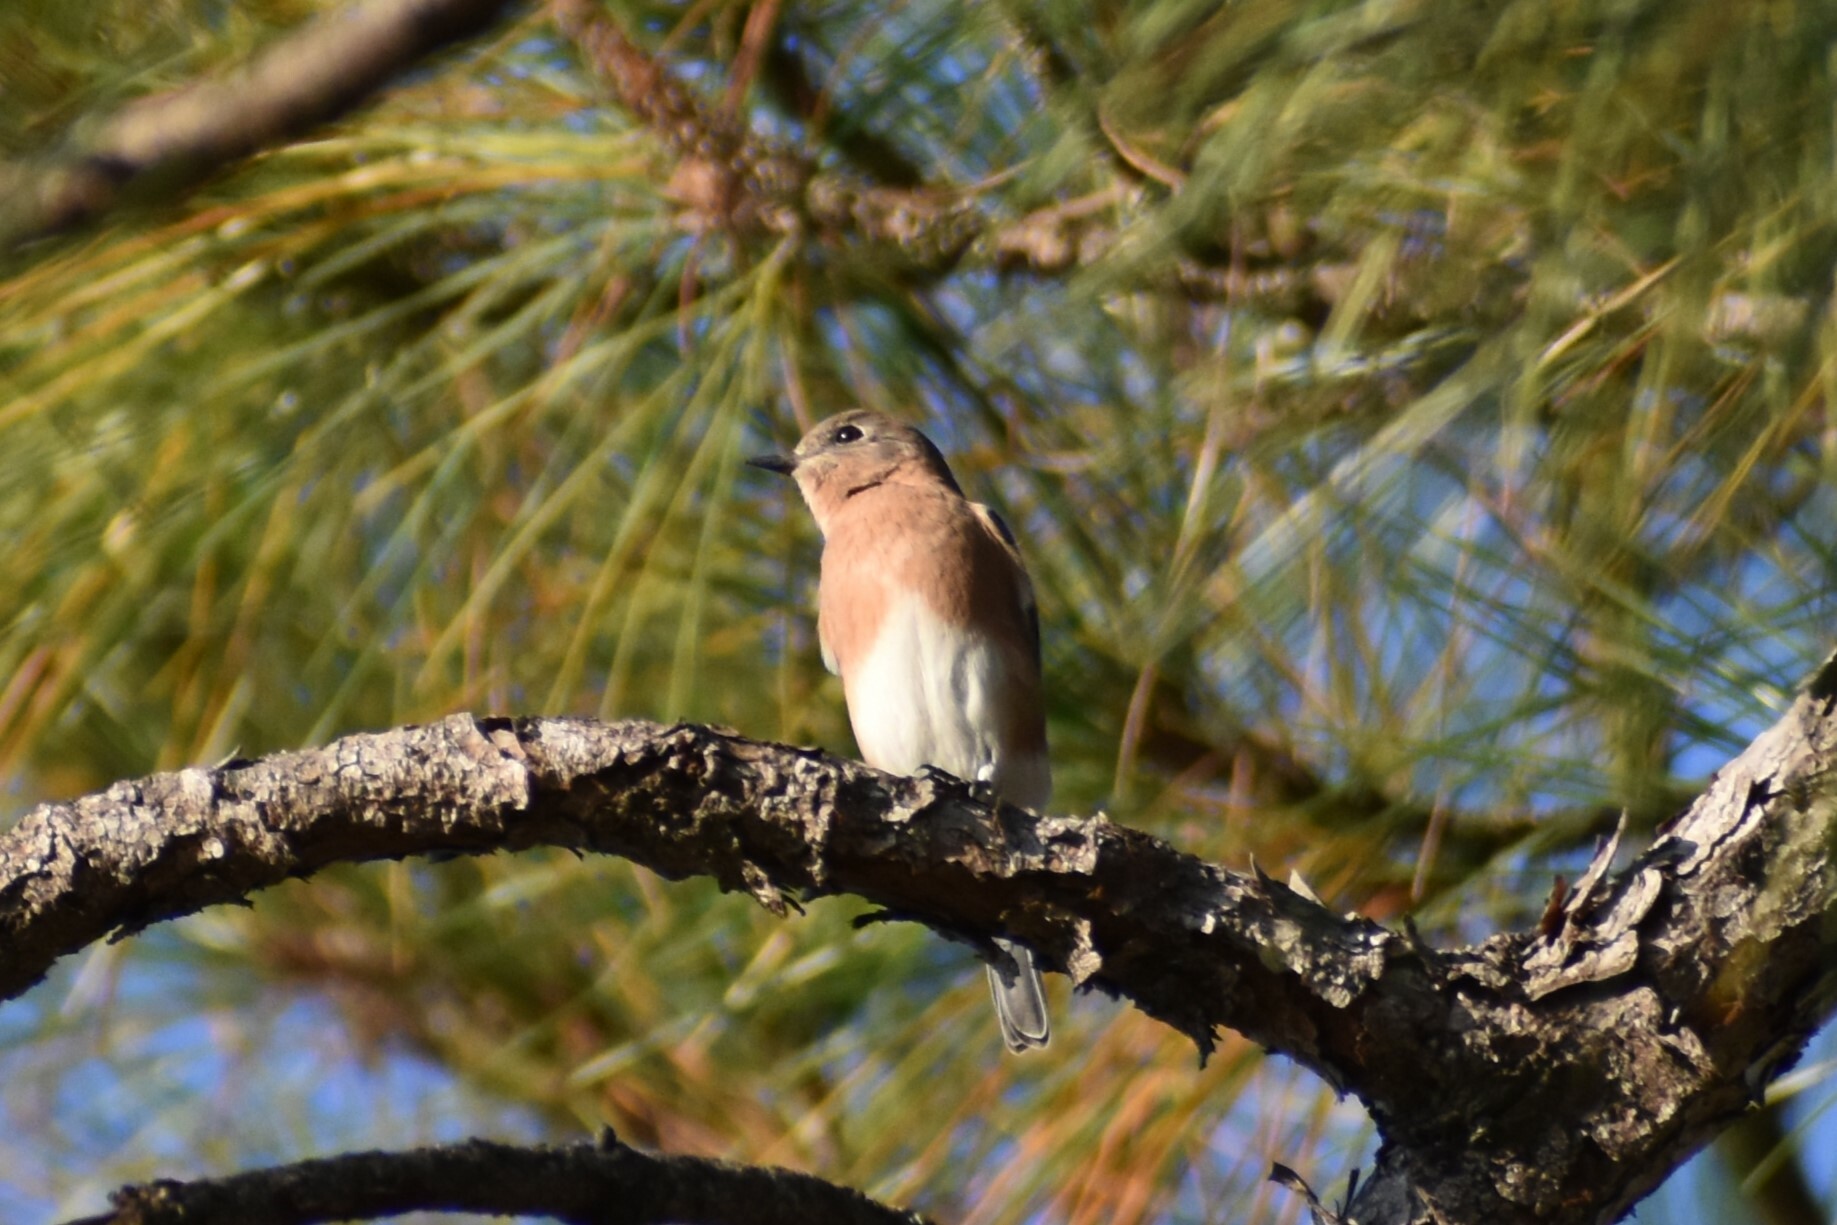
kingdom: Animalia
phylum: Chordata
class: Aves
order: Passeriformes
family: Turdidae
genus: Sialia
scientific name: Sialia sialis
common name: Eastern bluebird
